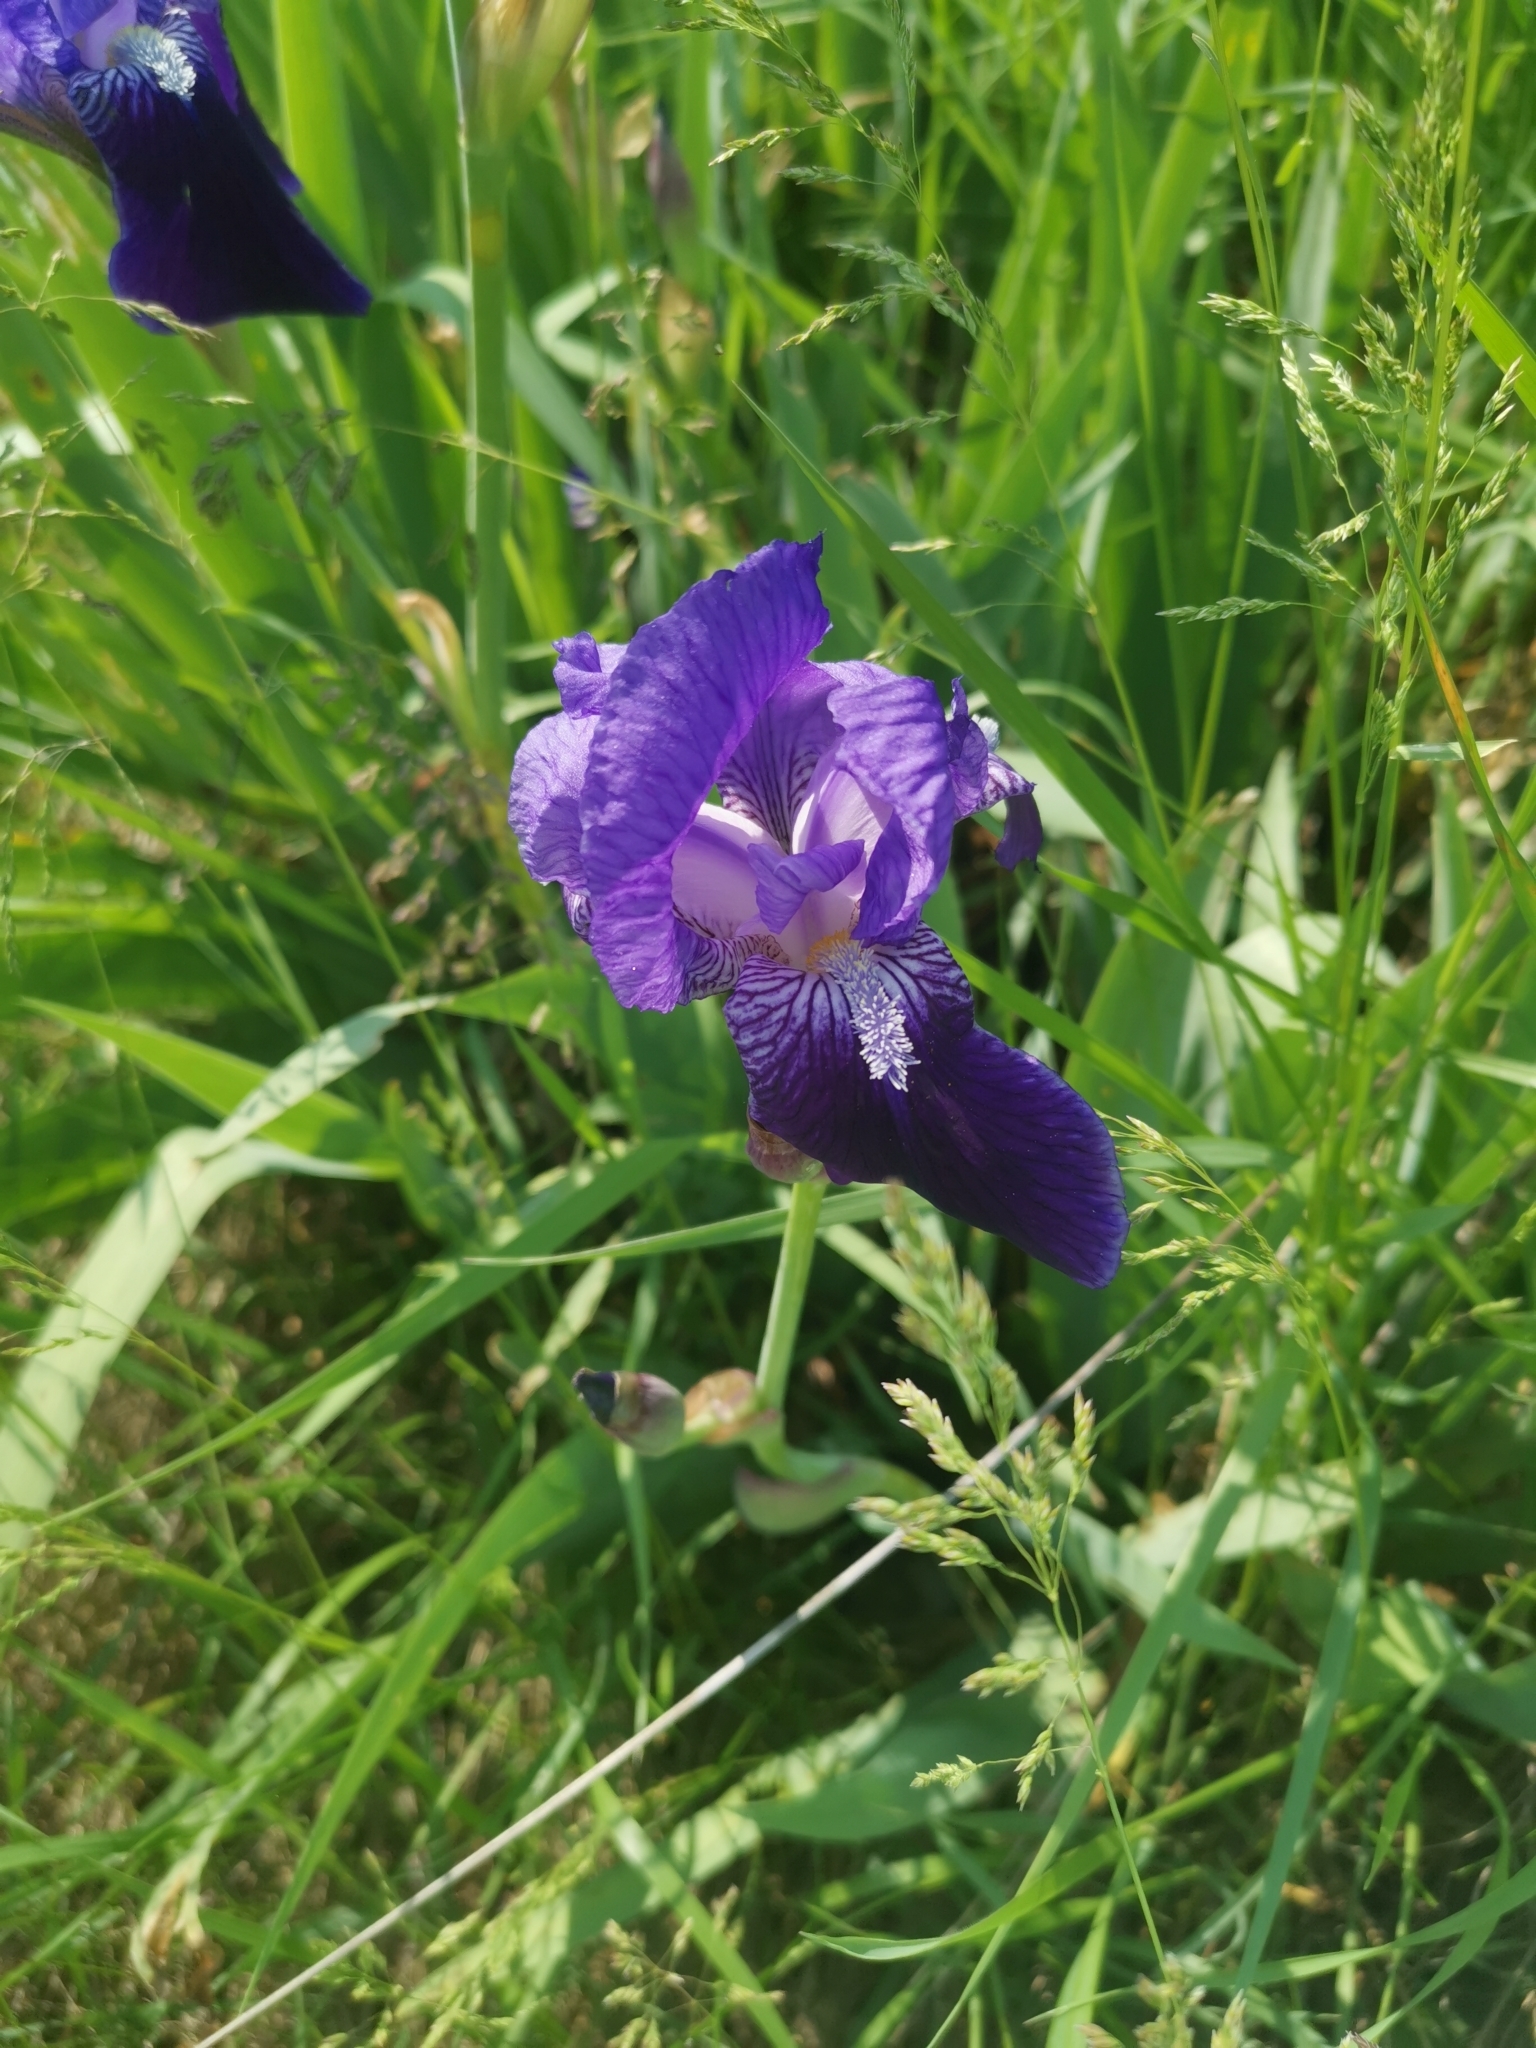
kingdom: Plantae
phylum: Tracheophyta
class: Liliopsida
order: Asparagales
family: Iridaceae
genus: Iris
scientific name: Iris germanica
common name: German iris
